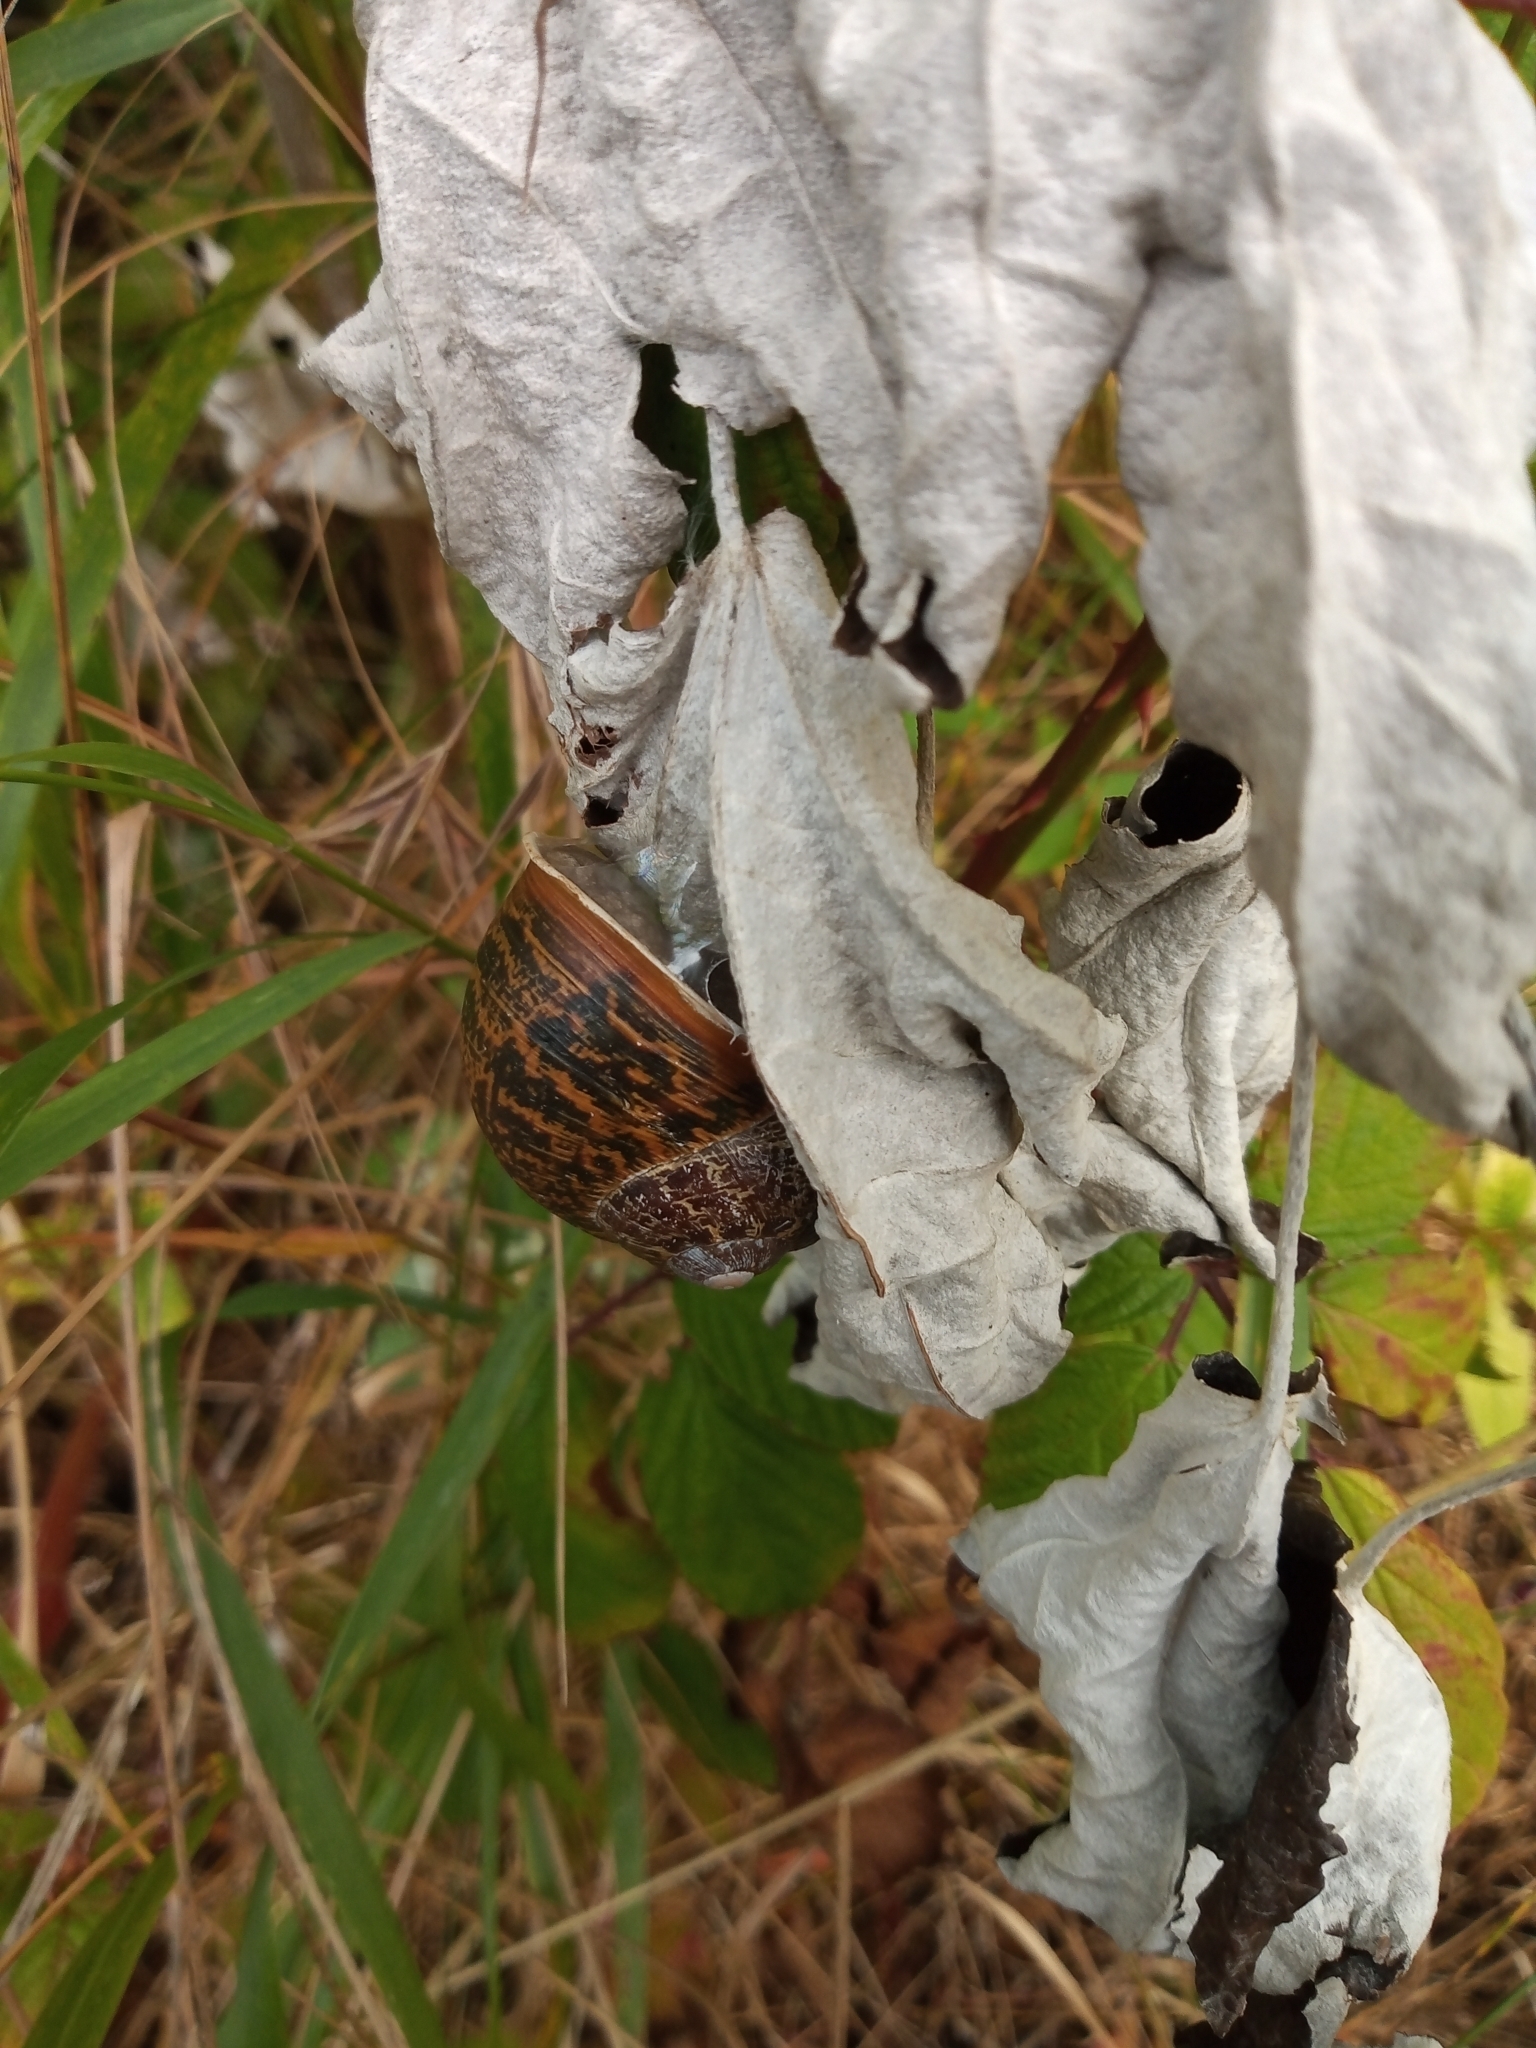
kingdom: Animalia
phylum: Mollusca
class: Gastropoda
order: Stylommatophora
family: Helicidae
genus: Cornu
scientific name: Cornu aspersum
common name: Brown garden snail
